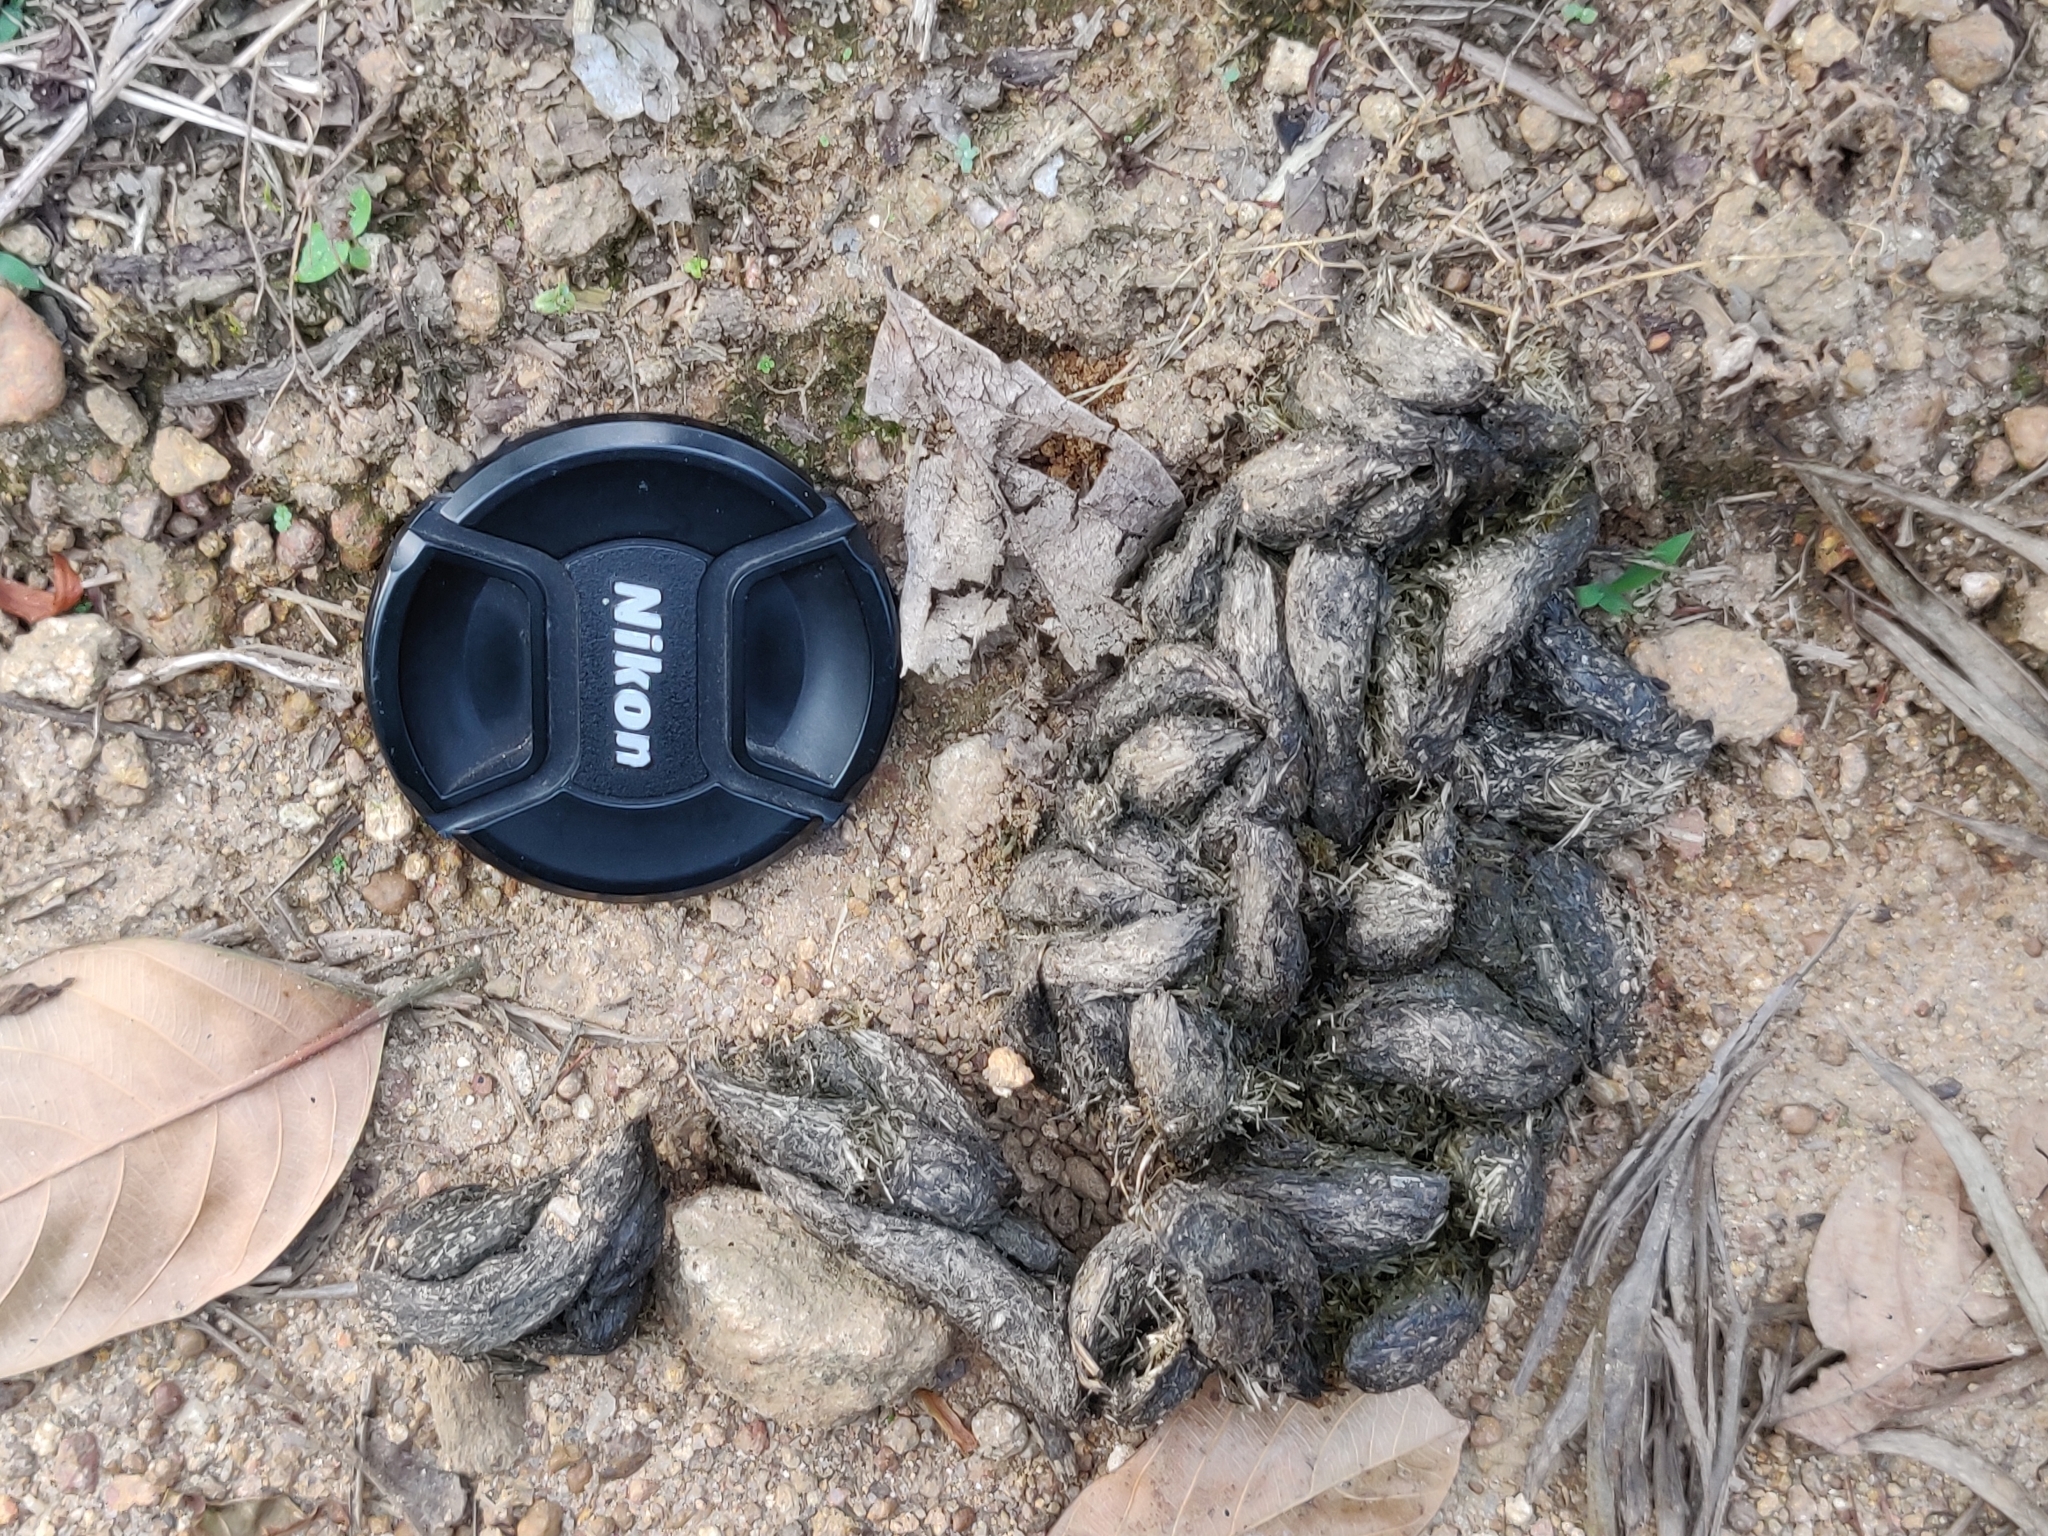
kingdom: Animalia
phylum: Chordata
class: Mammalia
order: Rodentia
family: Hystricidae
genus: Hystrix
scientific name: Hystrix indica
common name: Indian crested porcupine
